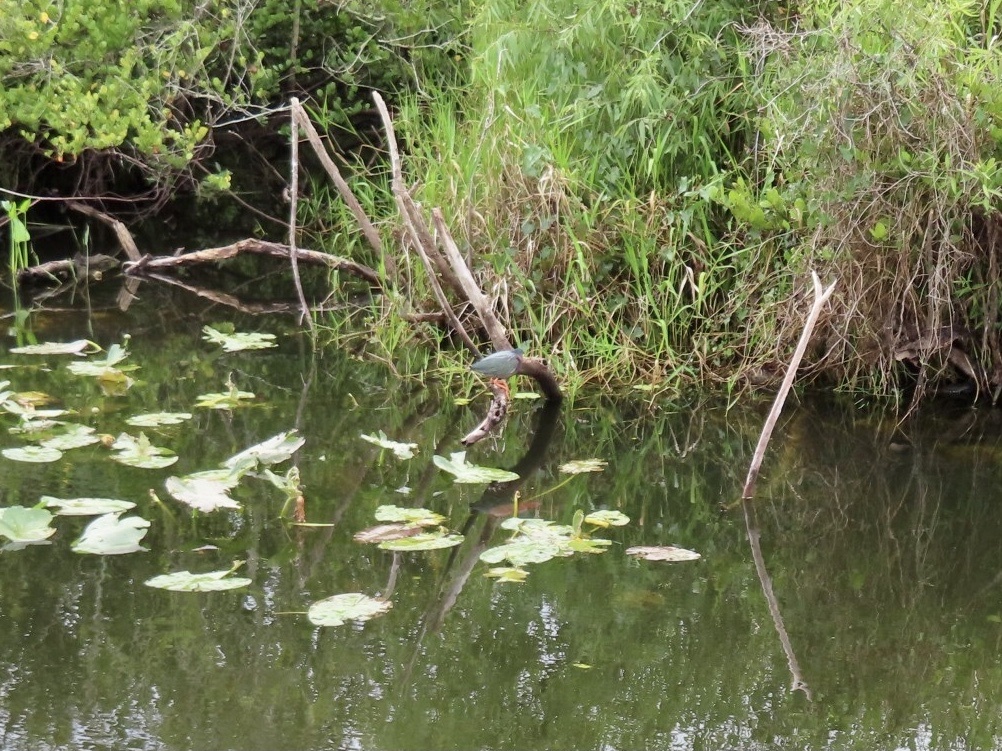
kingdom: Animalia
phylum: Chordata
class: Aves
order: Pelecaniformes
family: Ardeidae
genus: Butorides
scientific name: Butorides virescens
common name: Green heron
